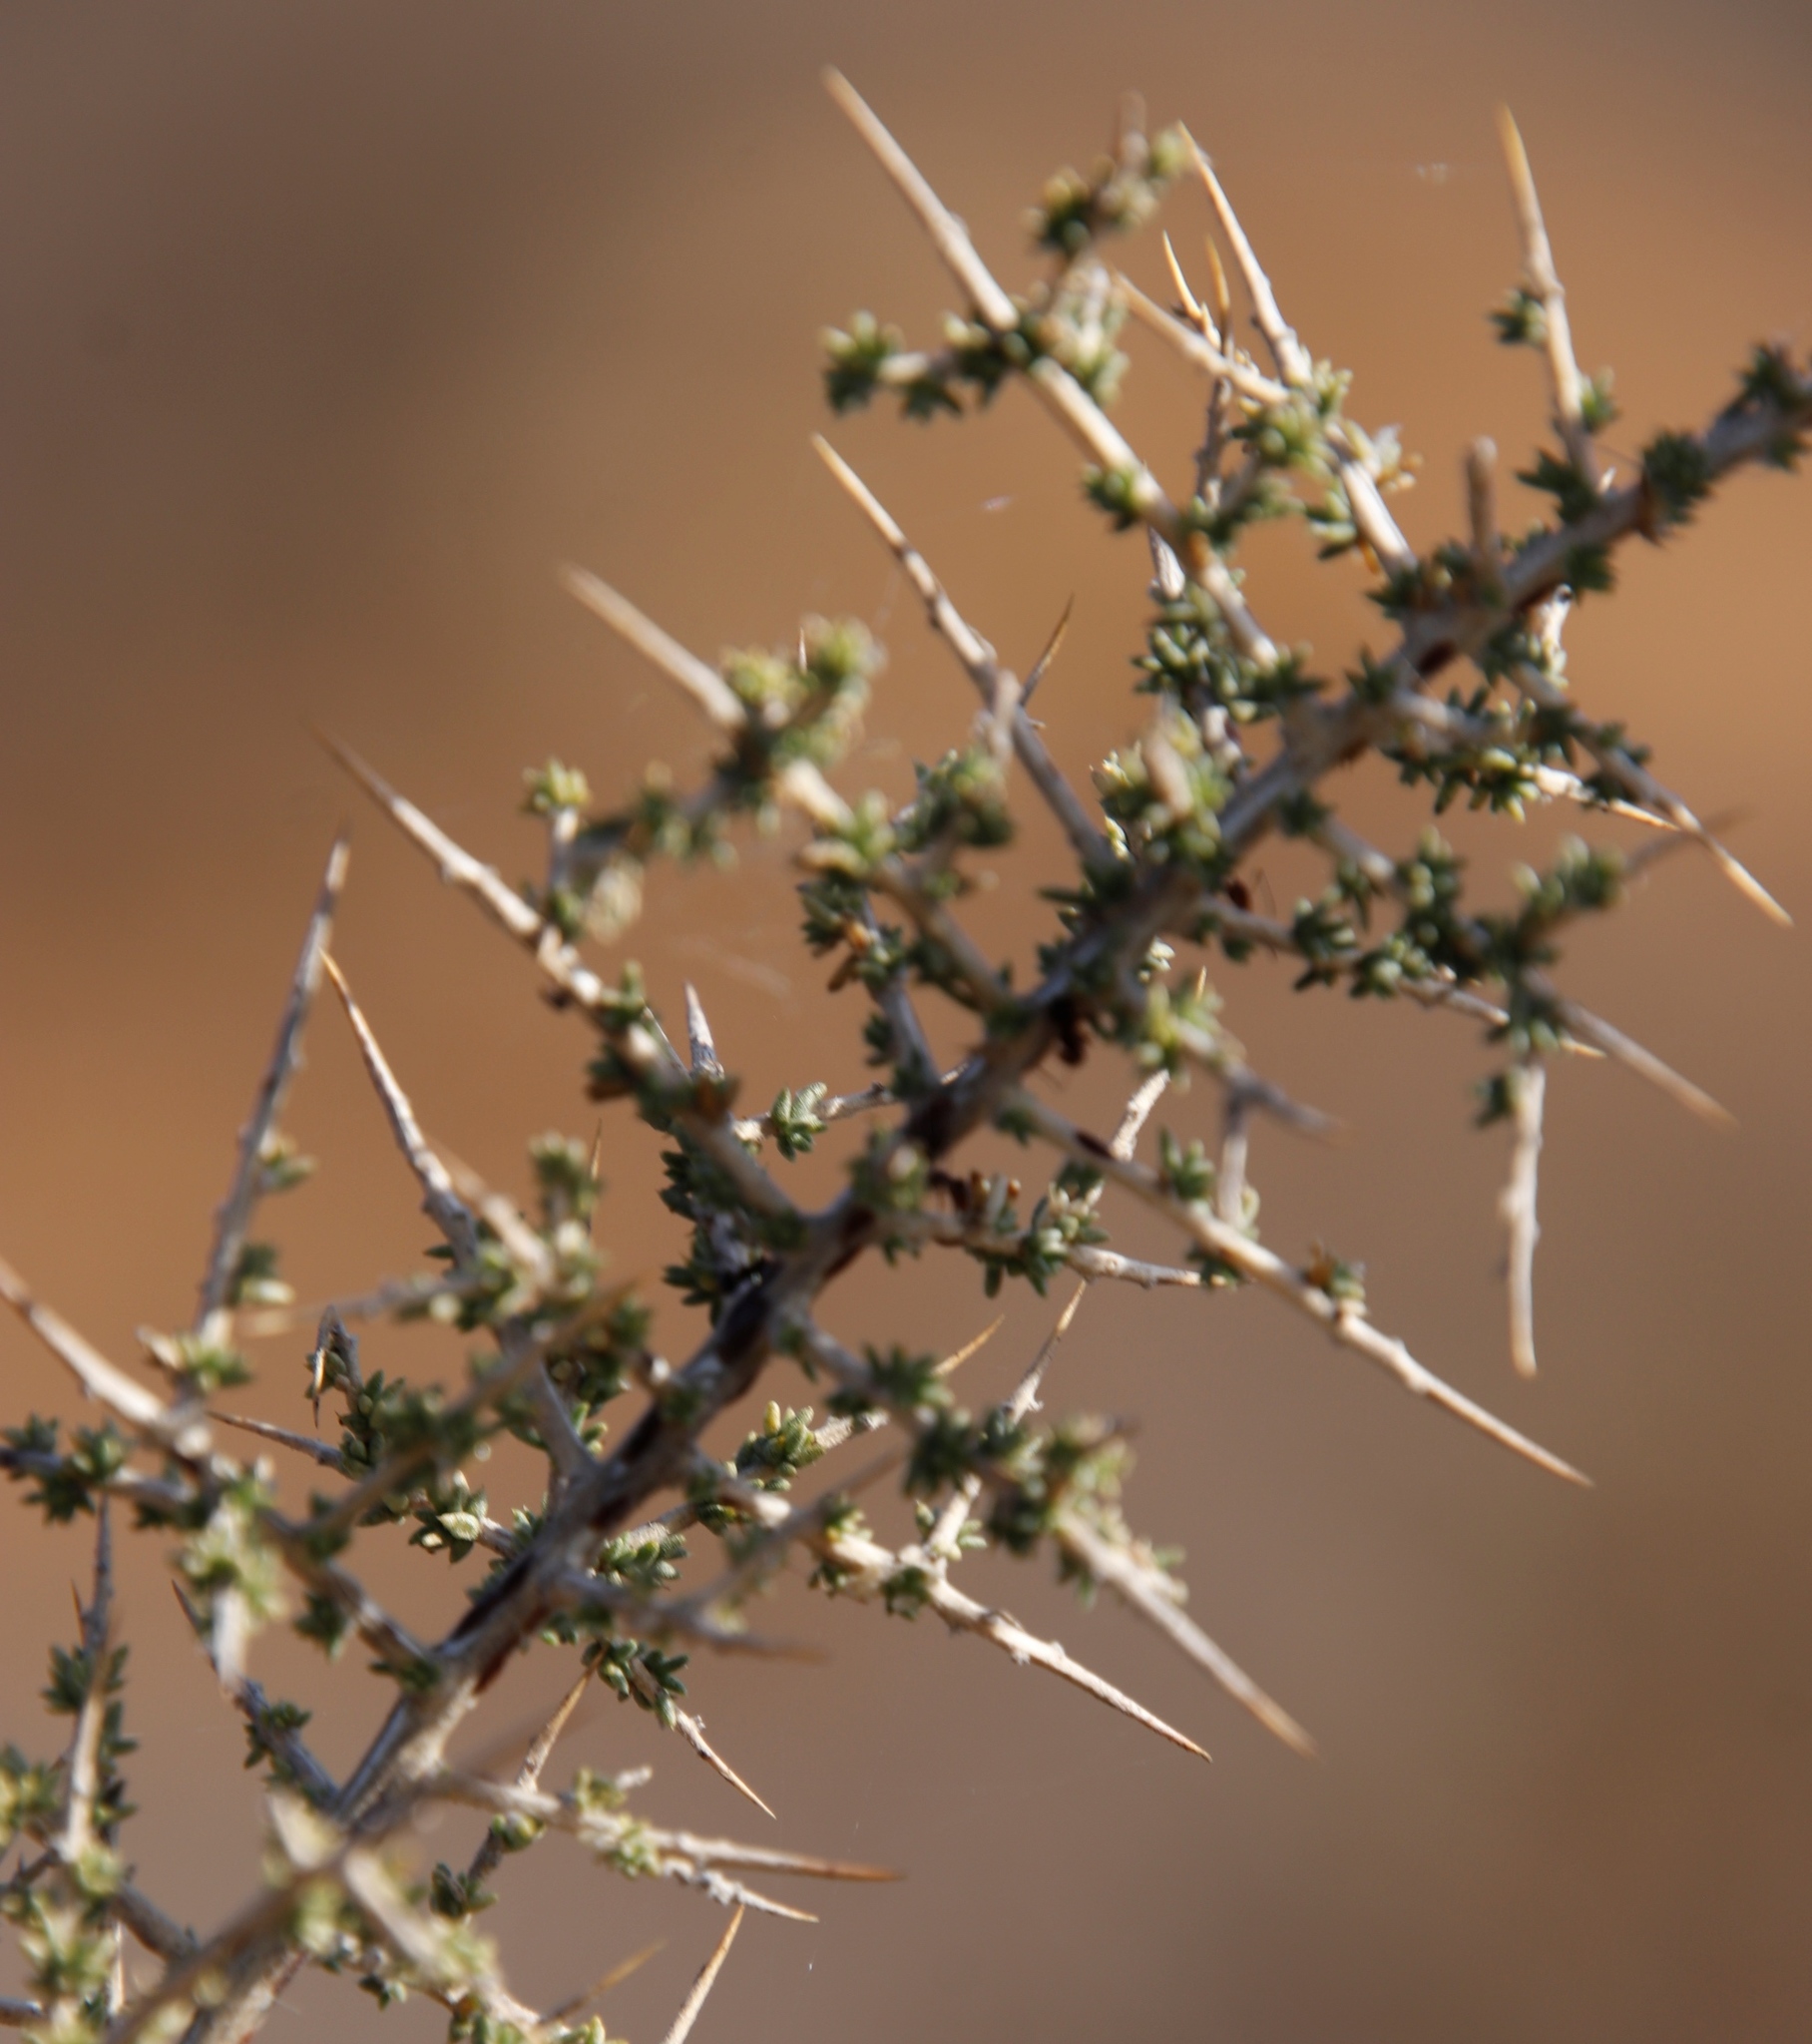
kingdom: Plantae
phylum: Tracheophyta
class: Magnoliopsida
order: Fabales
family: Fabaceae
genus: Aspalathus
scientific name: Aspalathus acuminata
